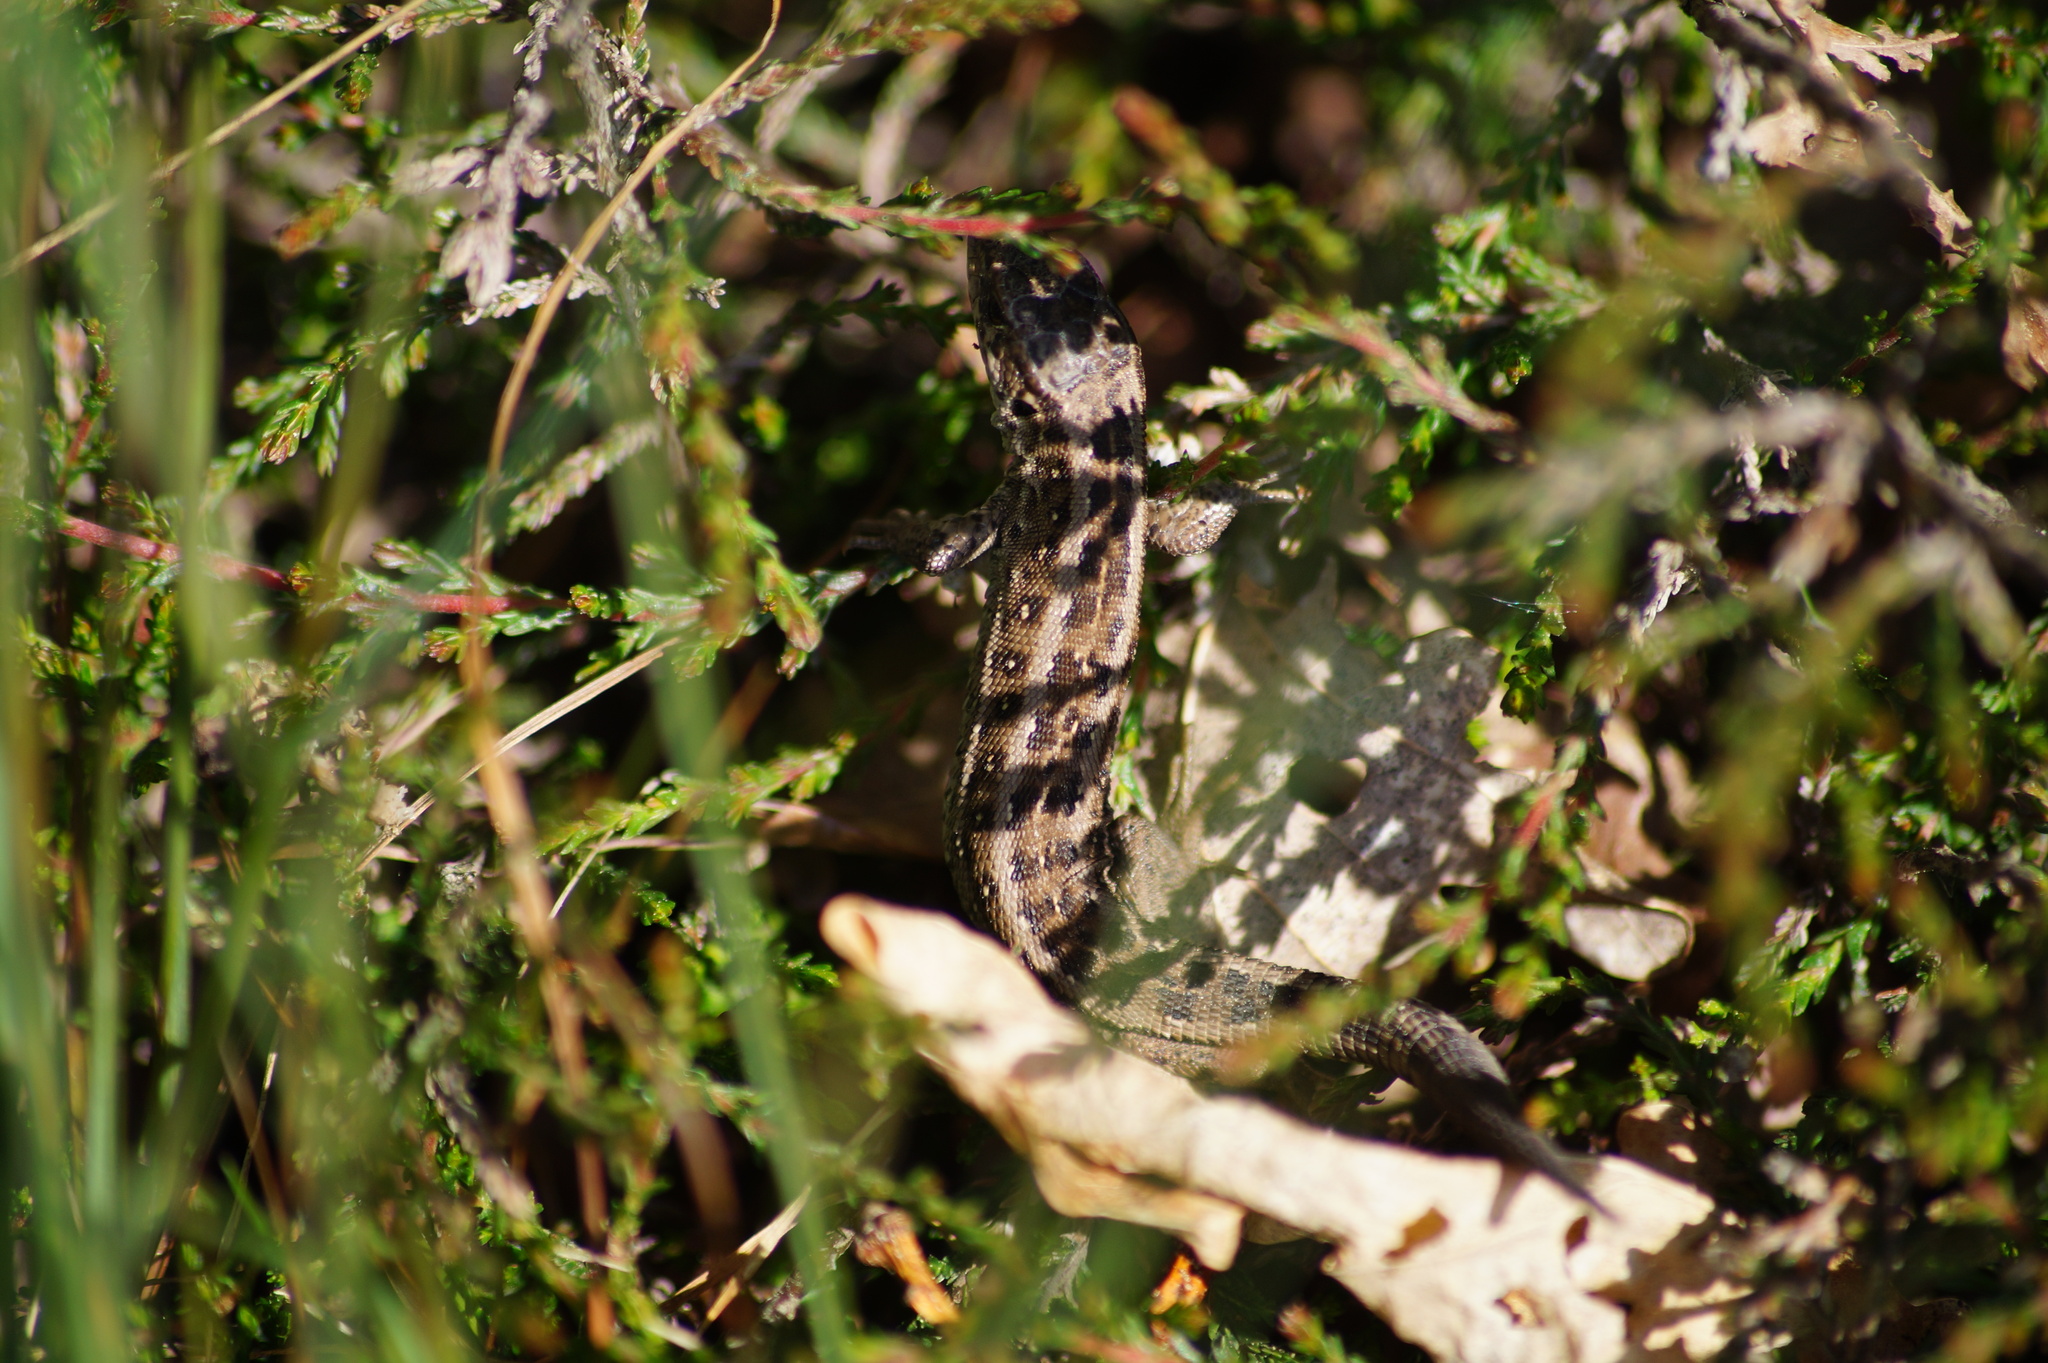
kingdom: Animalia
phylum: Chordata
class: Squamata
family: Lacertidae
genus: Lacerta
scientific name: Lacerta agilis
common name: Sand lizard
